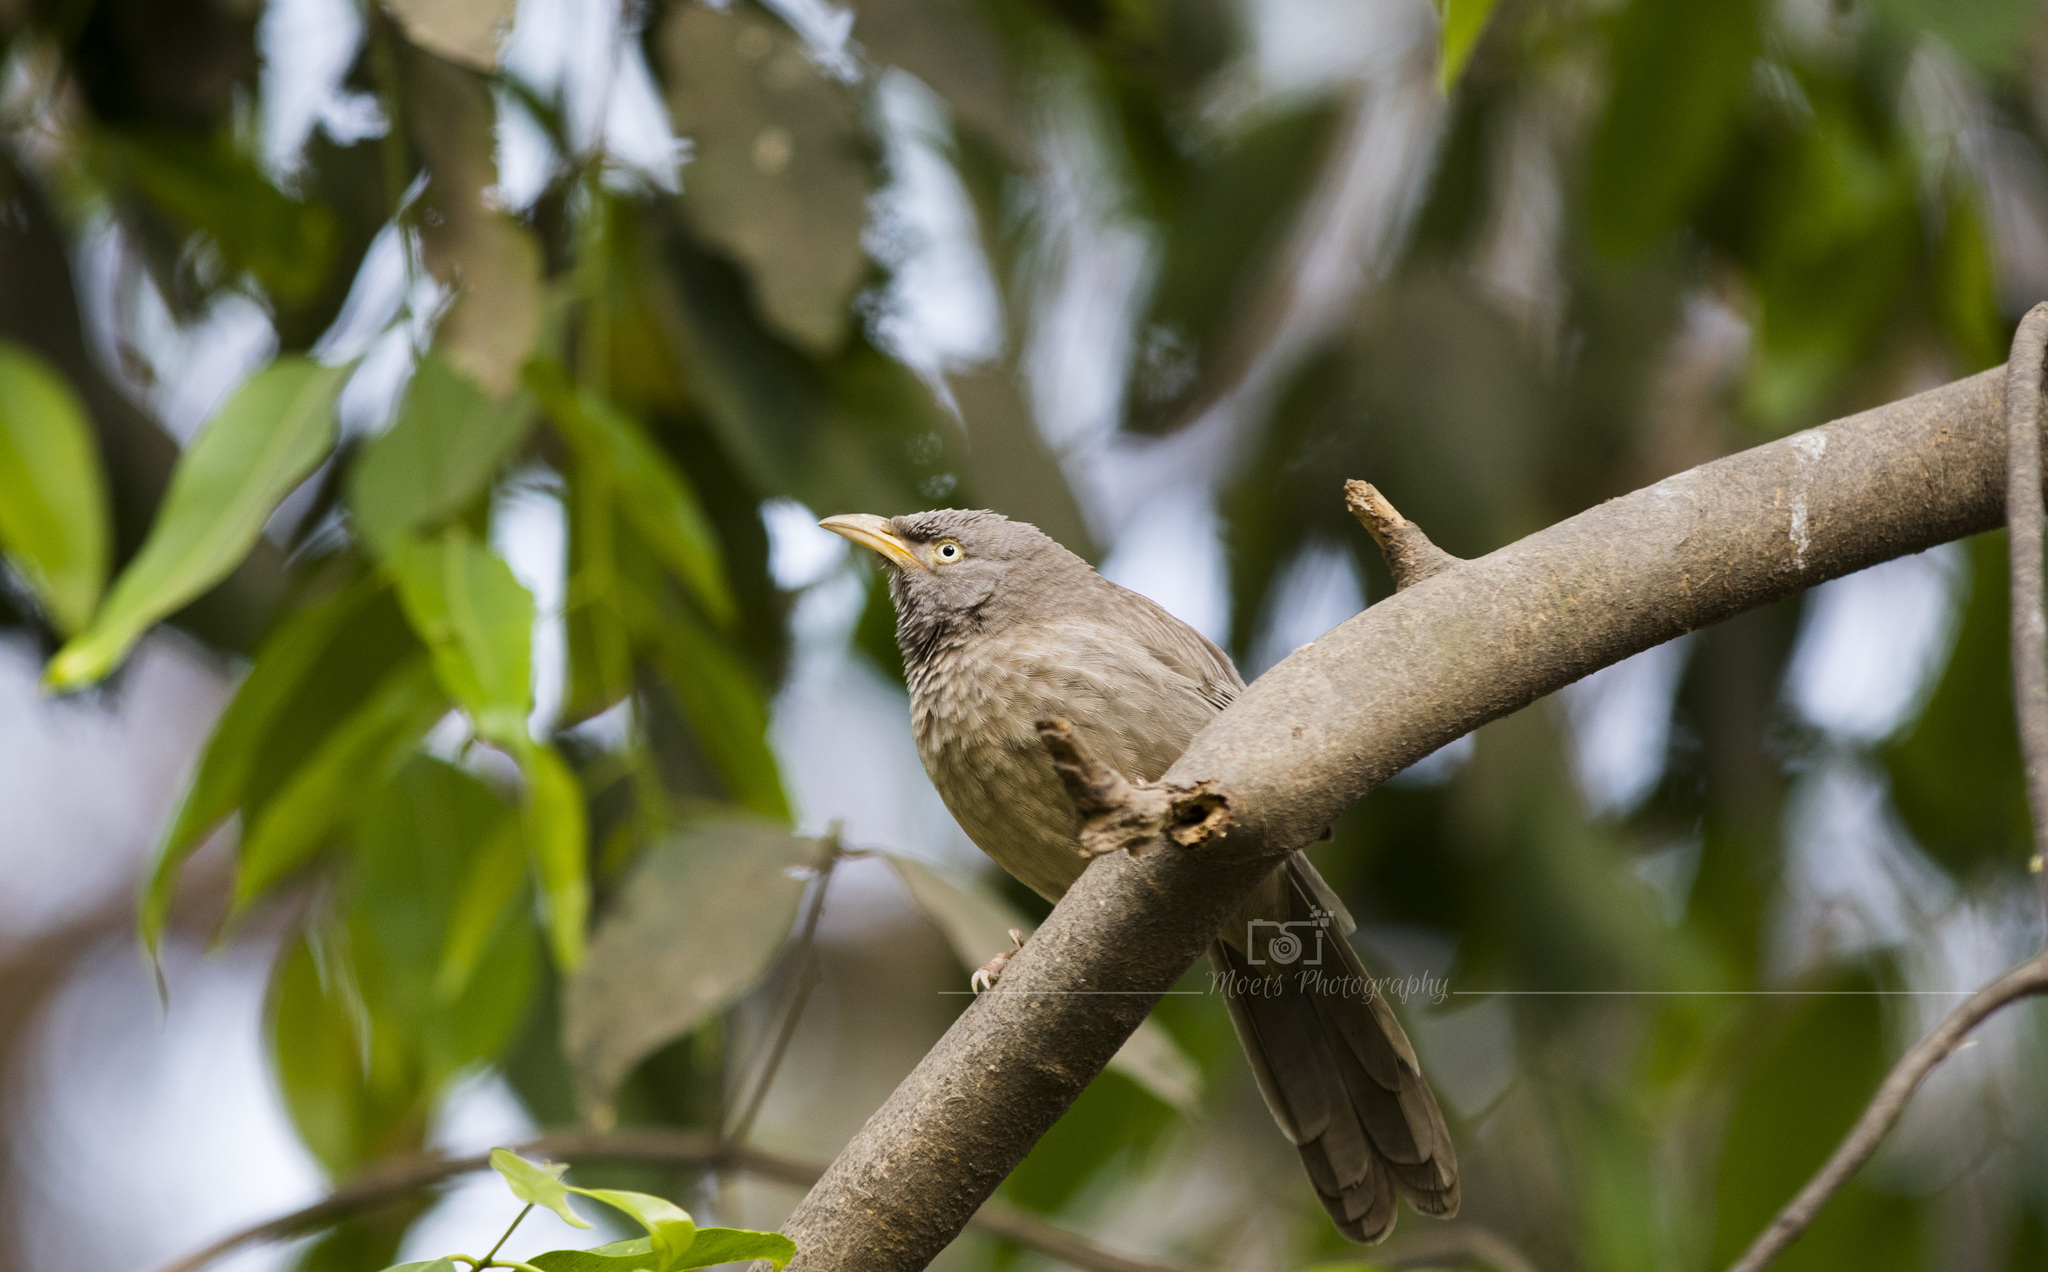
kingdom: Animalia
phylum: Chordata
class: Aves
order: Passeriformes
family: Leiothrichidae
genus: Turdoides
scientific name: Turdoides striata
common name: Jungle babbler
